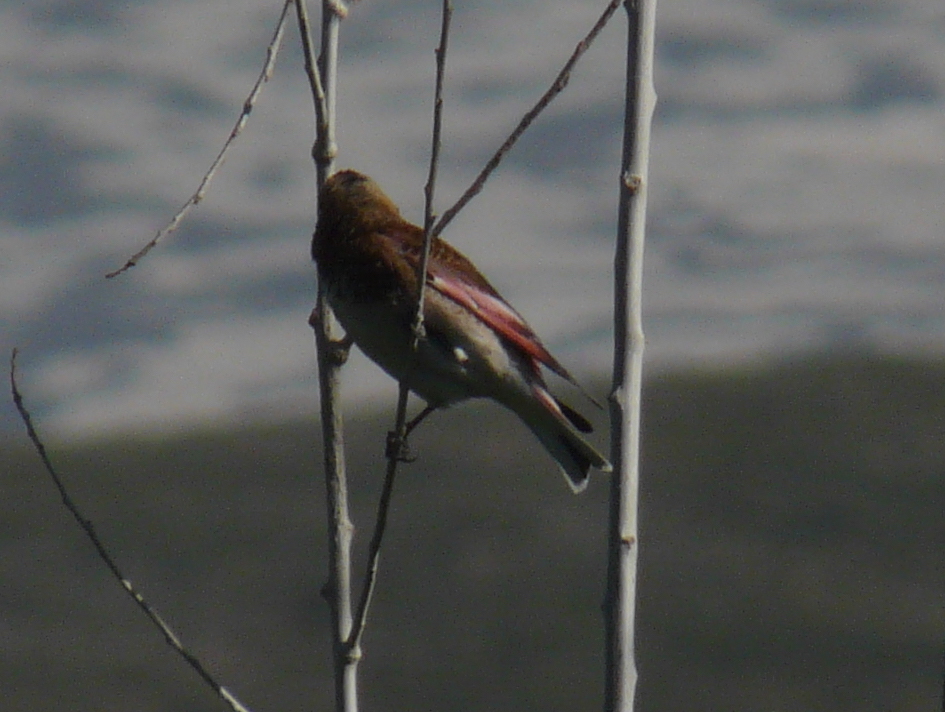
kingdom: Animalia
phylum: Chordata
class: Aves
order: Passeriformes
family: Fringillidae
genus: Rhodopechys
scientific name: Rhodopechys sanguineus
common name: Crimson-winged finch
